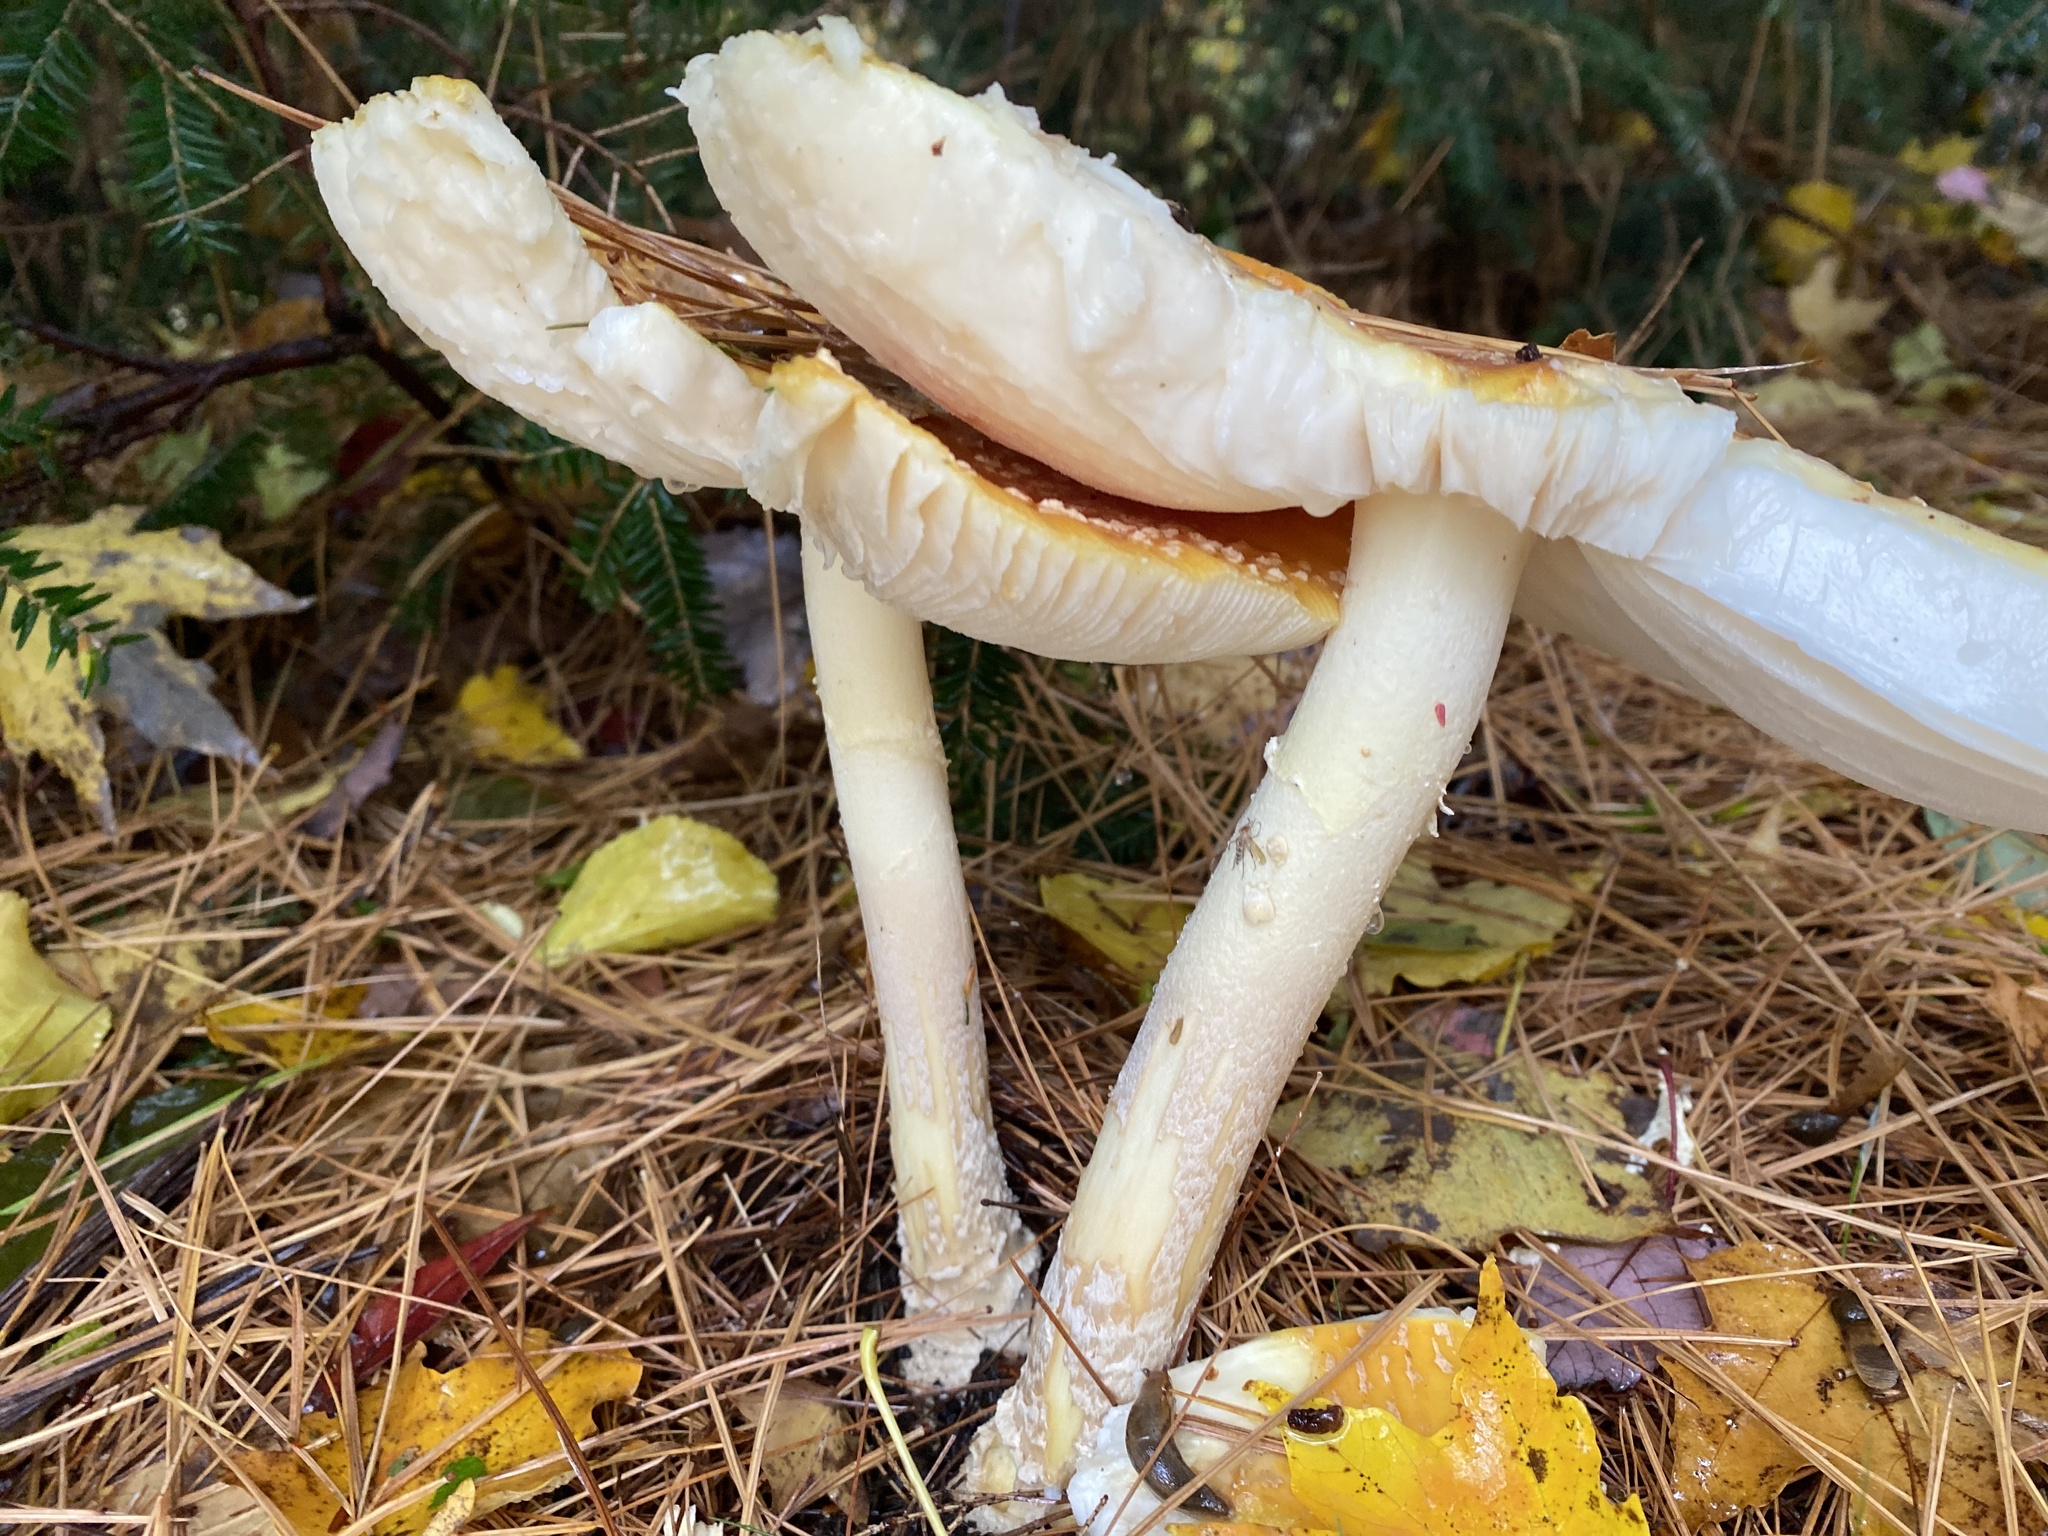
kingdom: Fungi
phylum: Basidiomycota
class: Agaricomycetes
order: Agaricales
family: Amanitaceae
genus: Amanita
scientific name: Amanita muscaria
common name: Fly agaric
